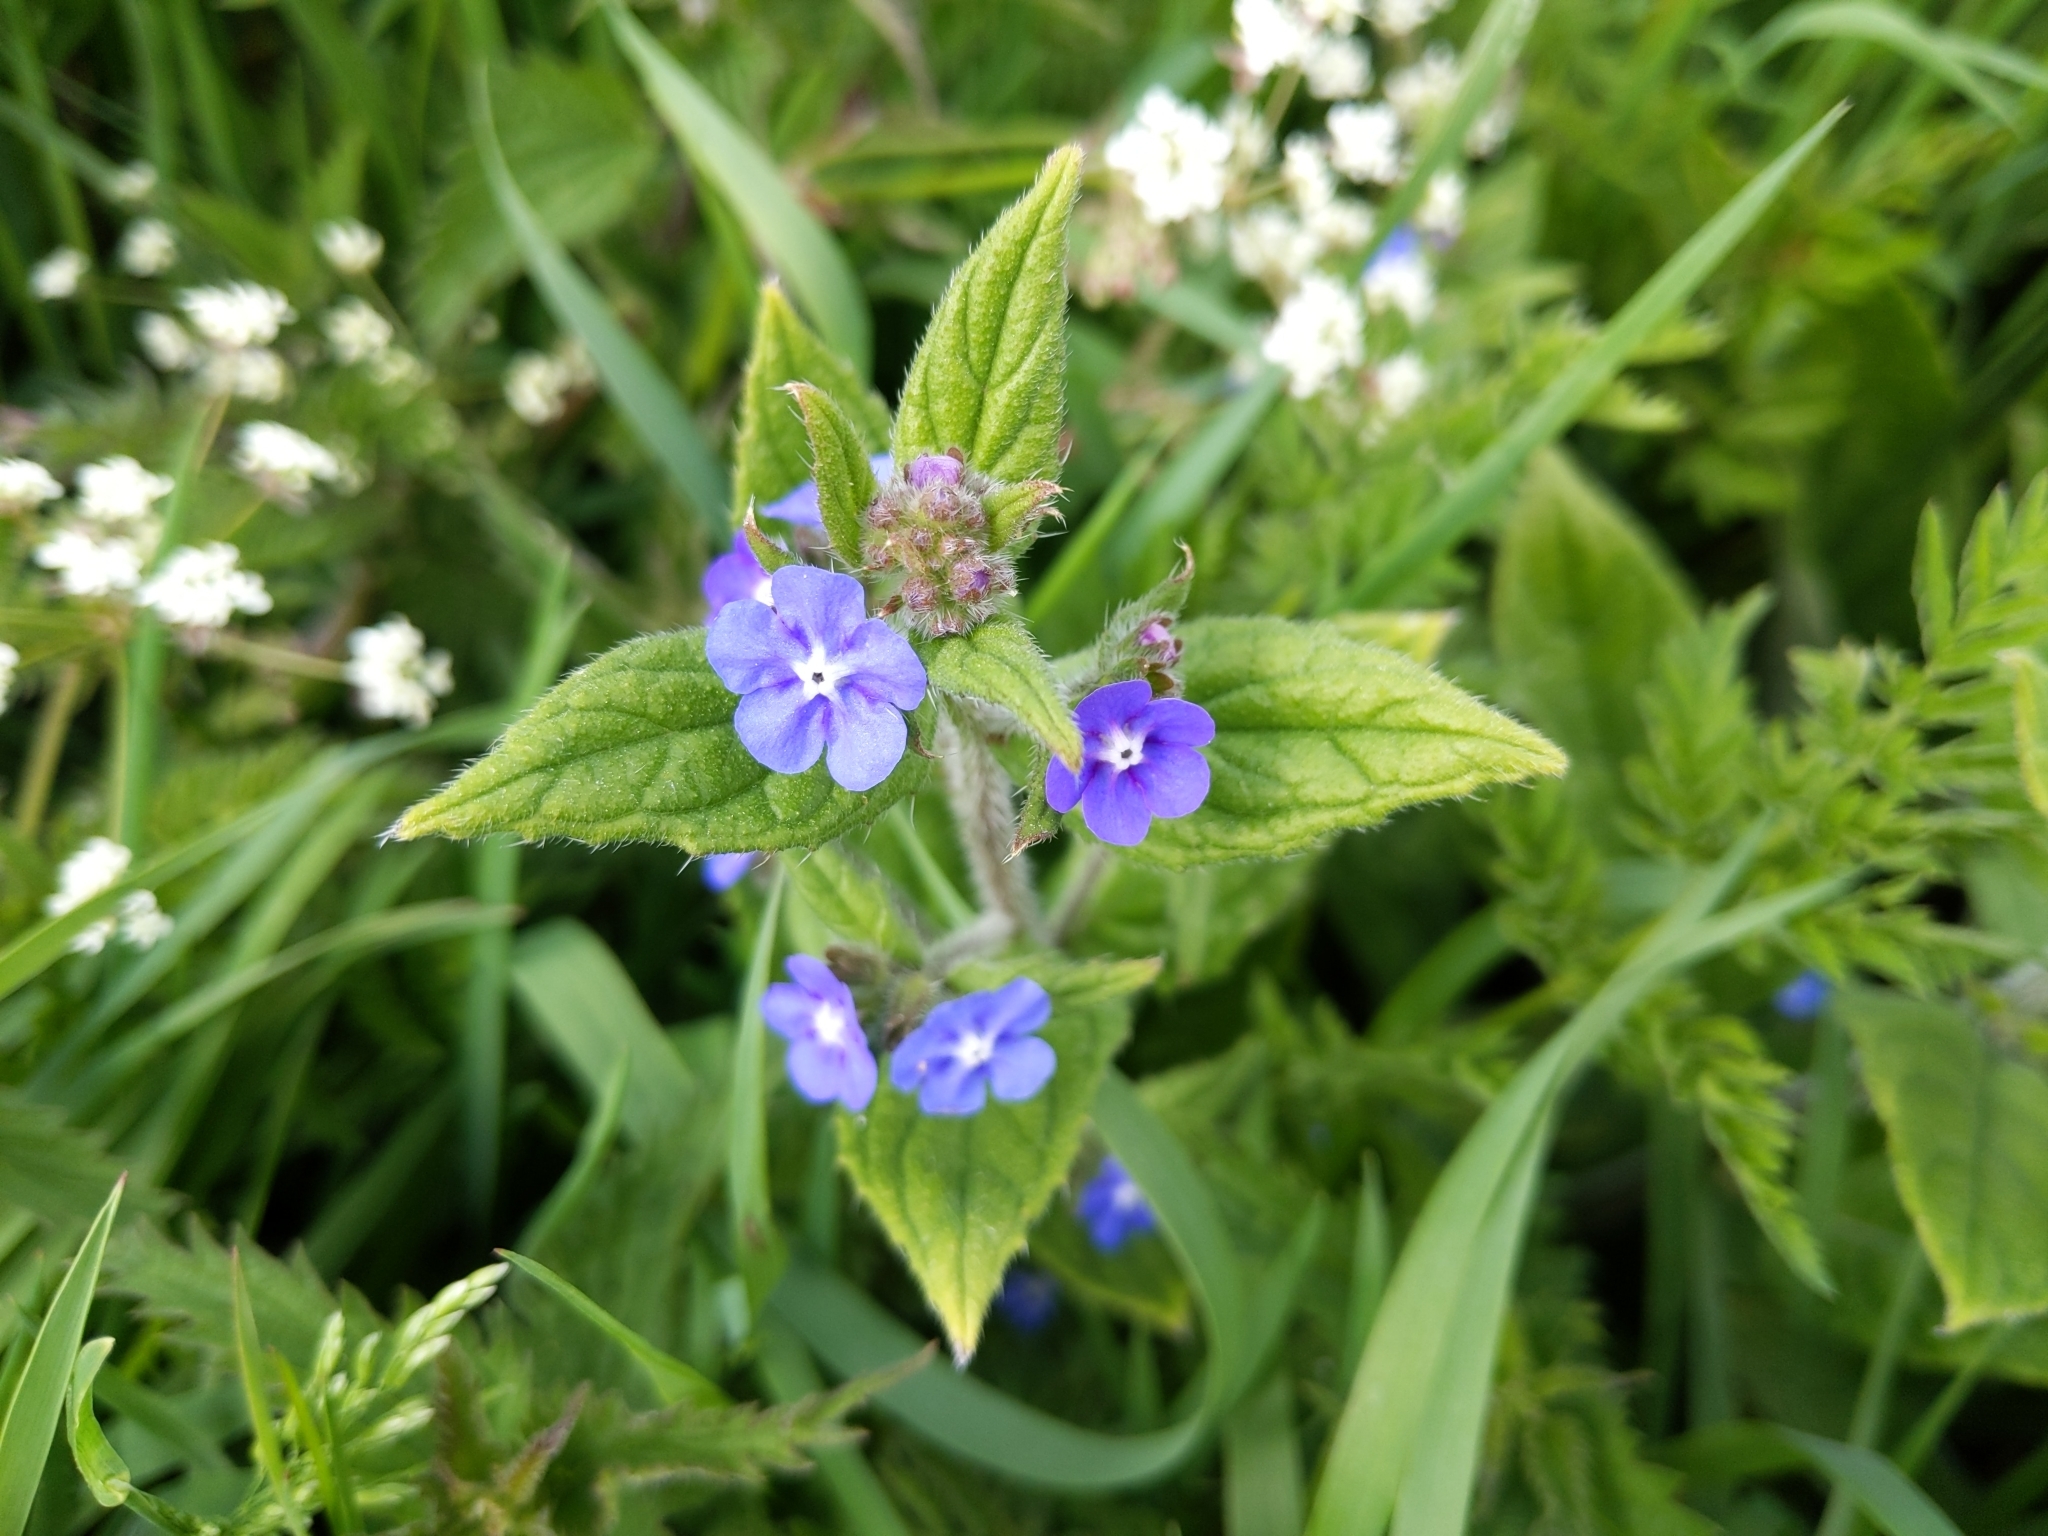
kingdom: Plantae
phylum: Tracheophyta
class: Magnoliopsida
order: Boraginales
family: Boraginaceae
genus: Pentaglottis
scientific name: Pentaglottis sempervirens
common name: Green alkanet
